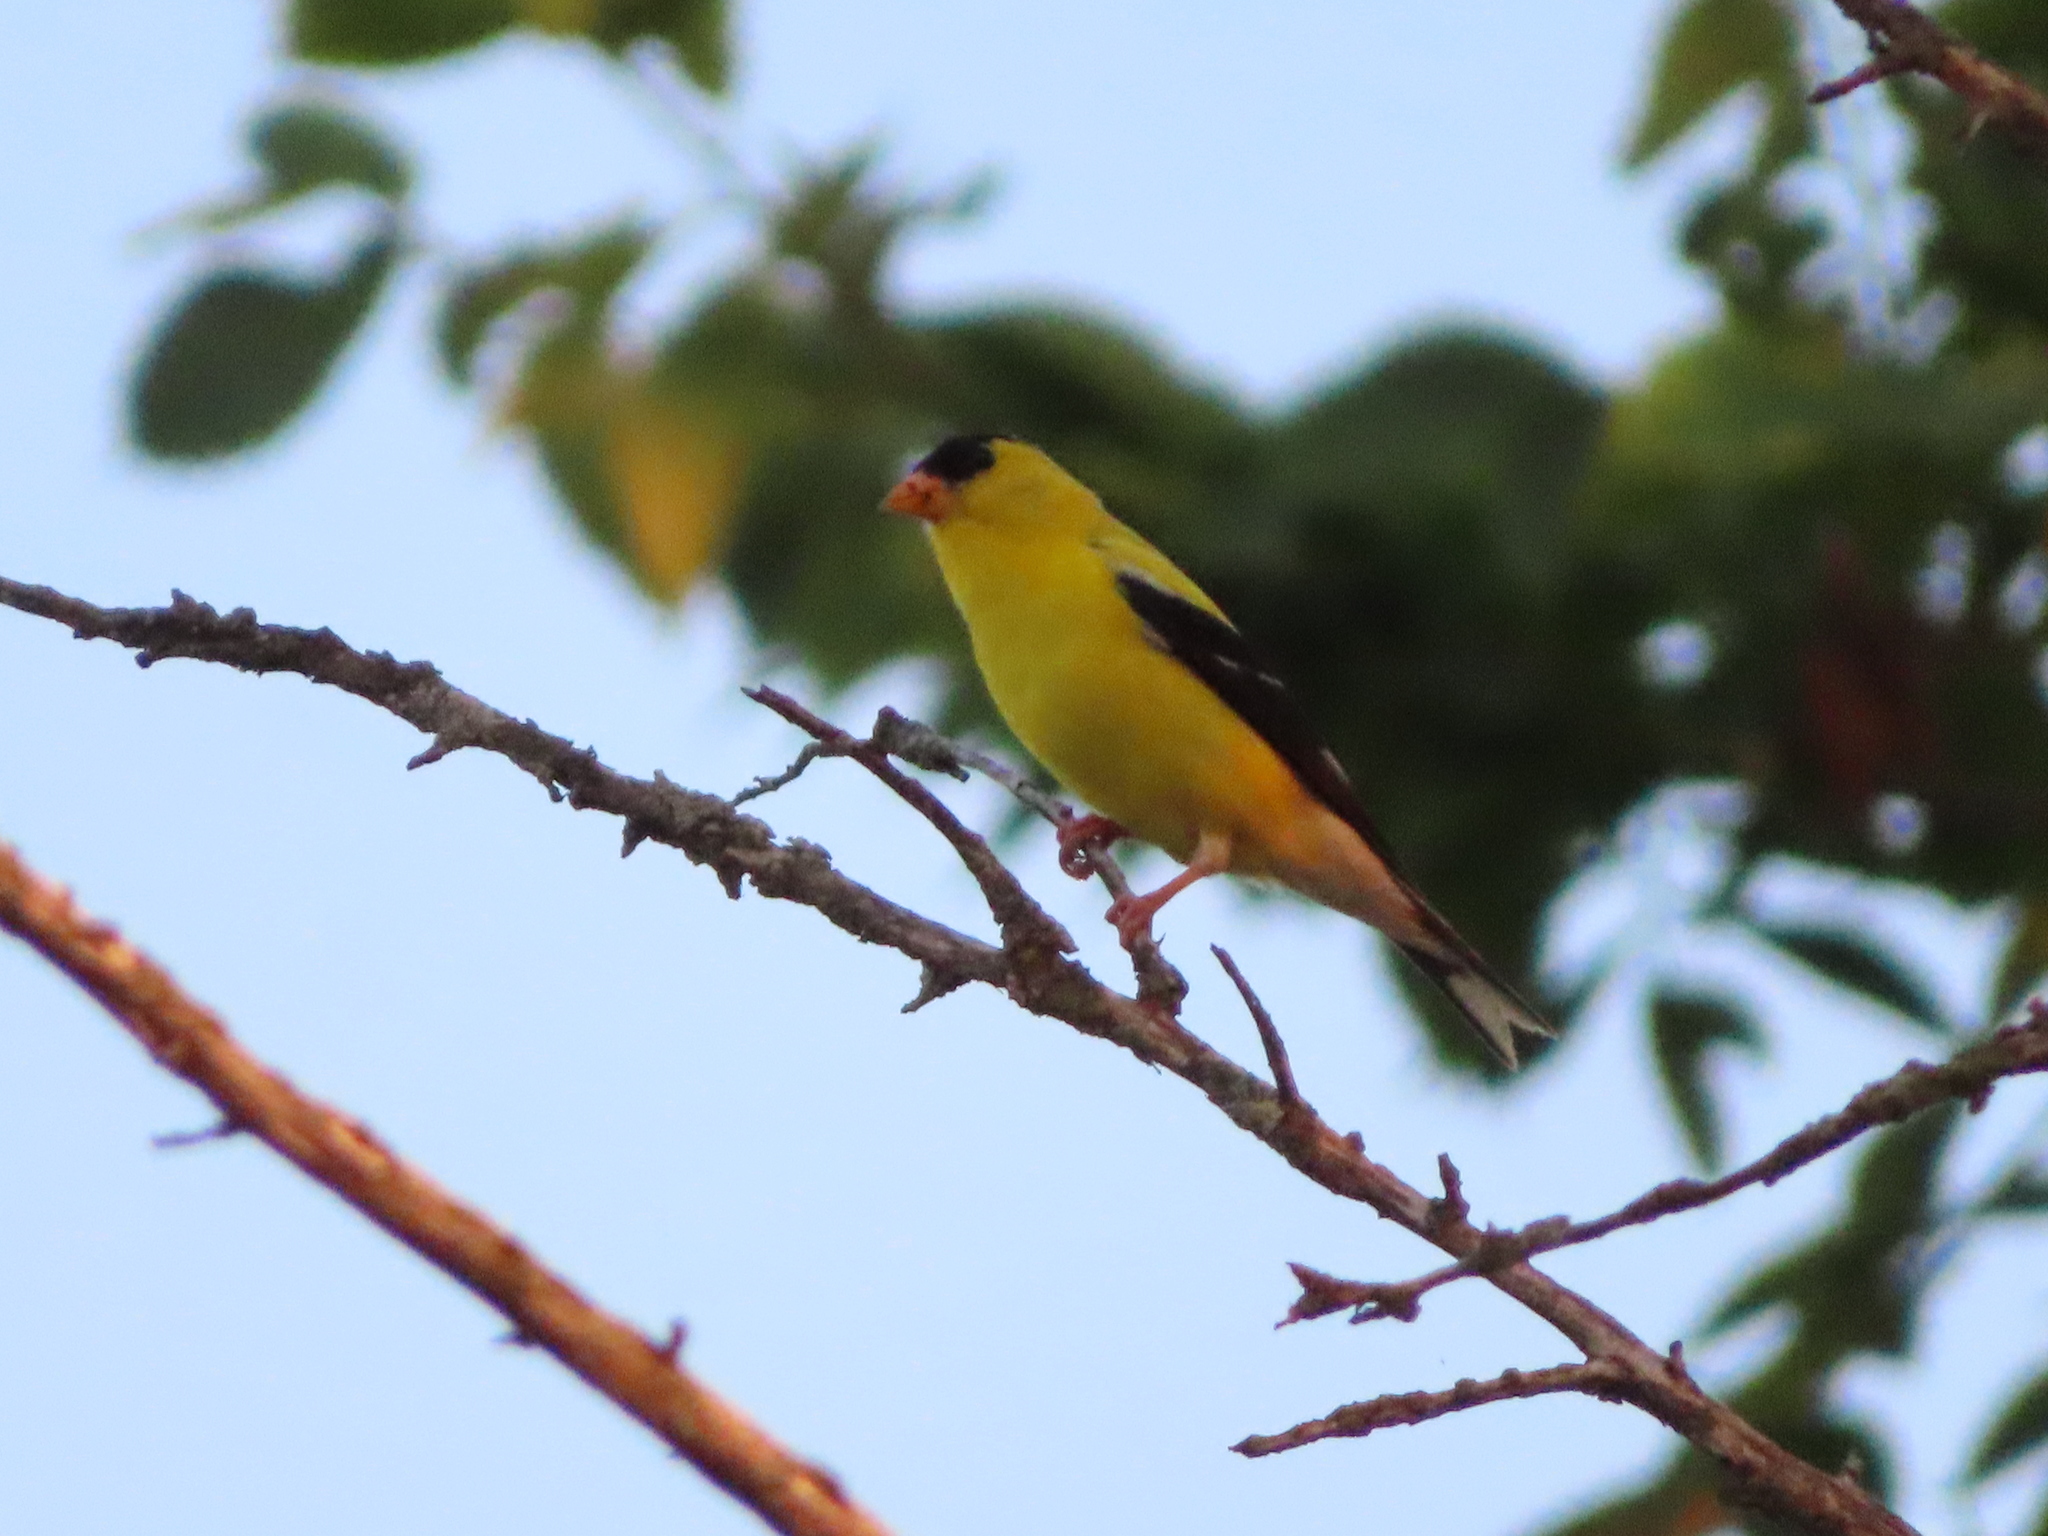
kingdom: Animalia
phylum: Chordata
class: Aves
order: Passeriformes
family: Fringillidae
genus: Spinus
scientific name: Spinus tristis
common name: American goldfinch
